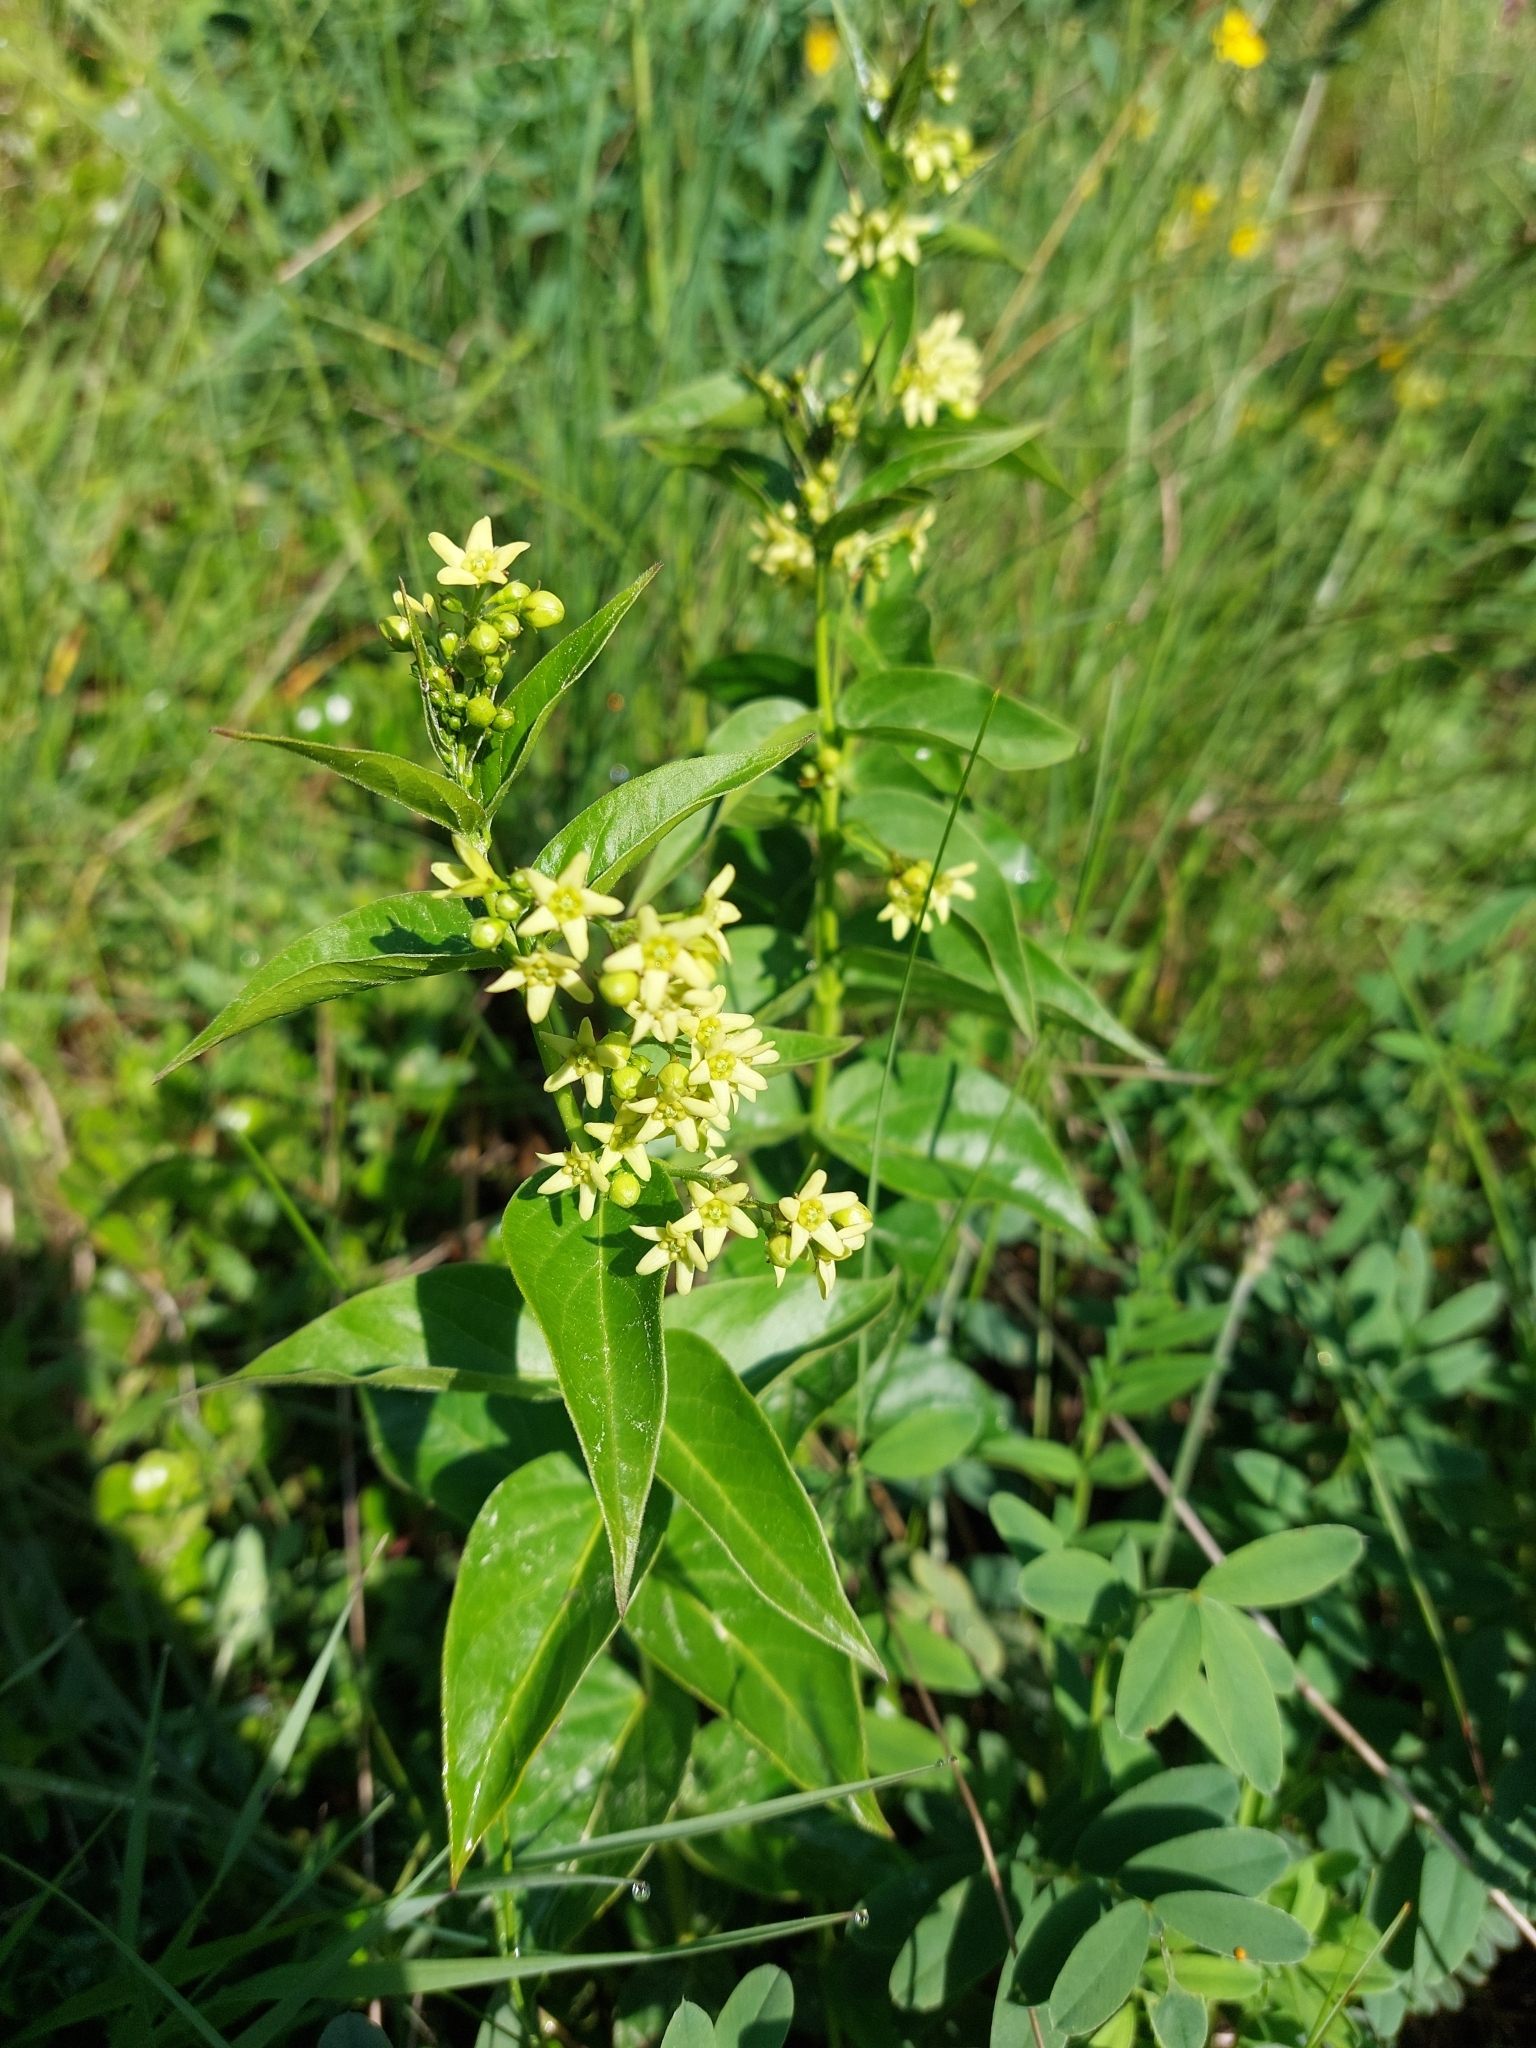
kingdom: Plantae
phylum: Tracheophyta
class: Magnoliopsida
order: Gentianales
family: Apocynaceae
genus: Vincetoxicum
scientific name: Vincetoxicum hirundinaria
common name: White swallowwort
